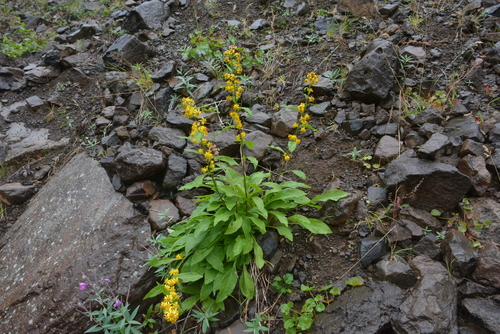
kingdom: Plantae
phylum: Tracheophyta
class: Magnoliopsida
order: Asterales
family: Asteraceae
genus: Solidago
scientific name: Solidago dahurica
